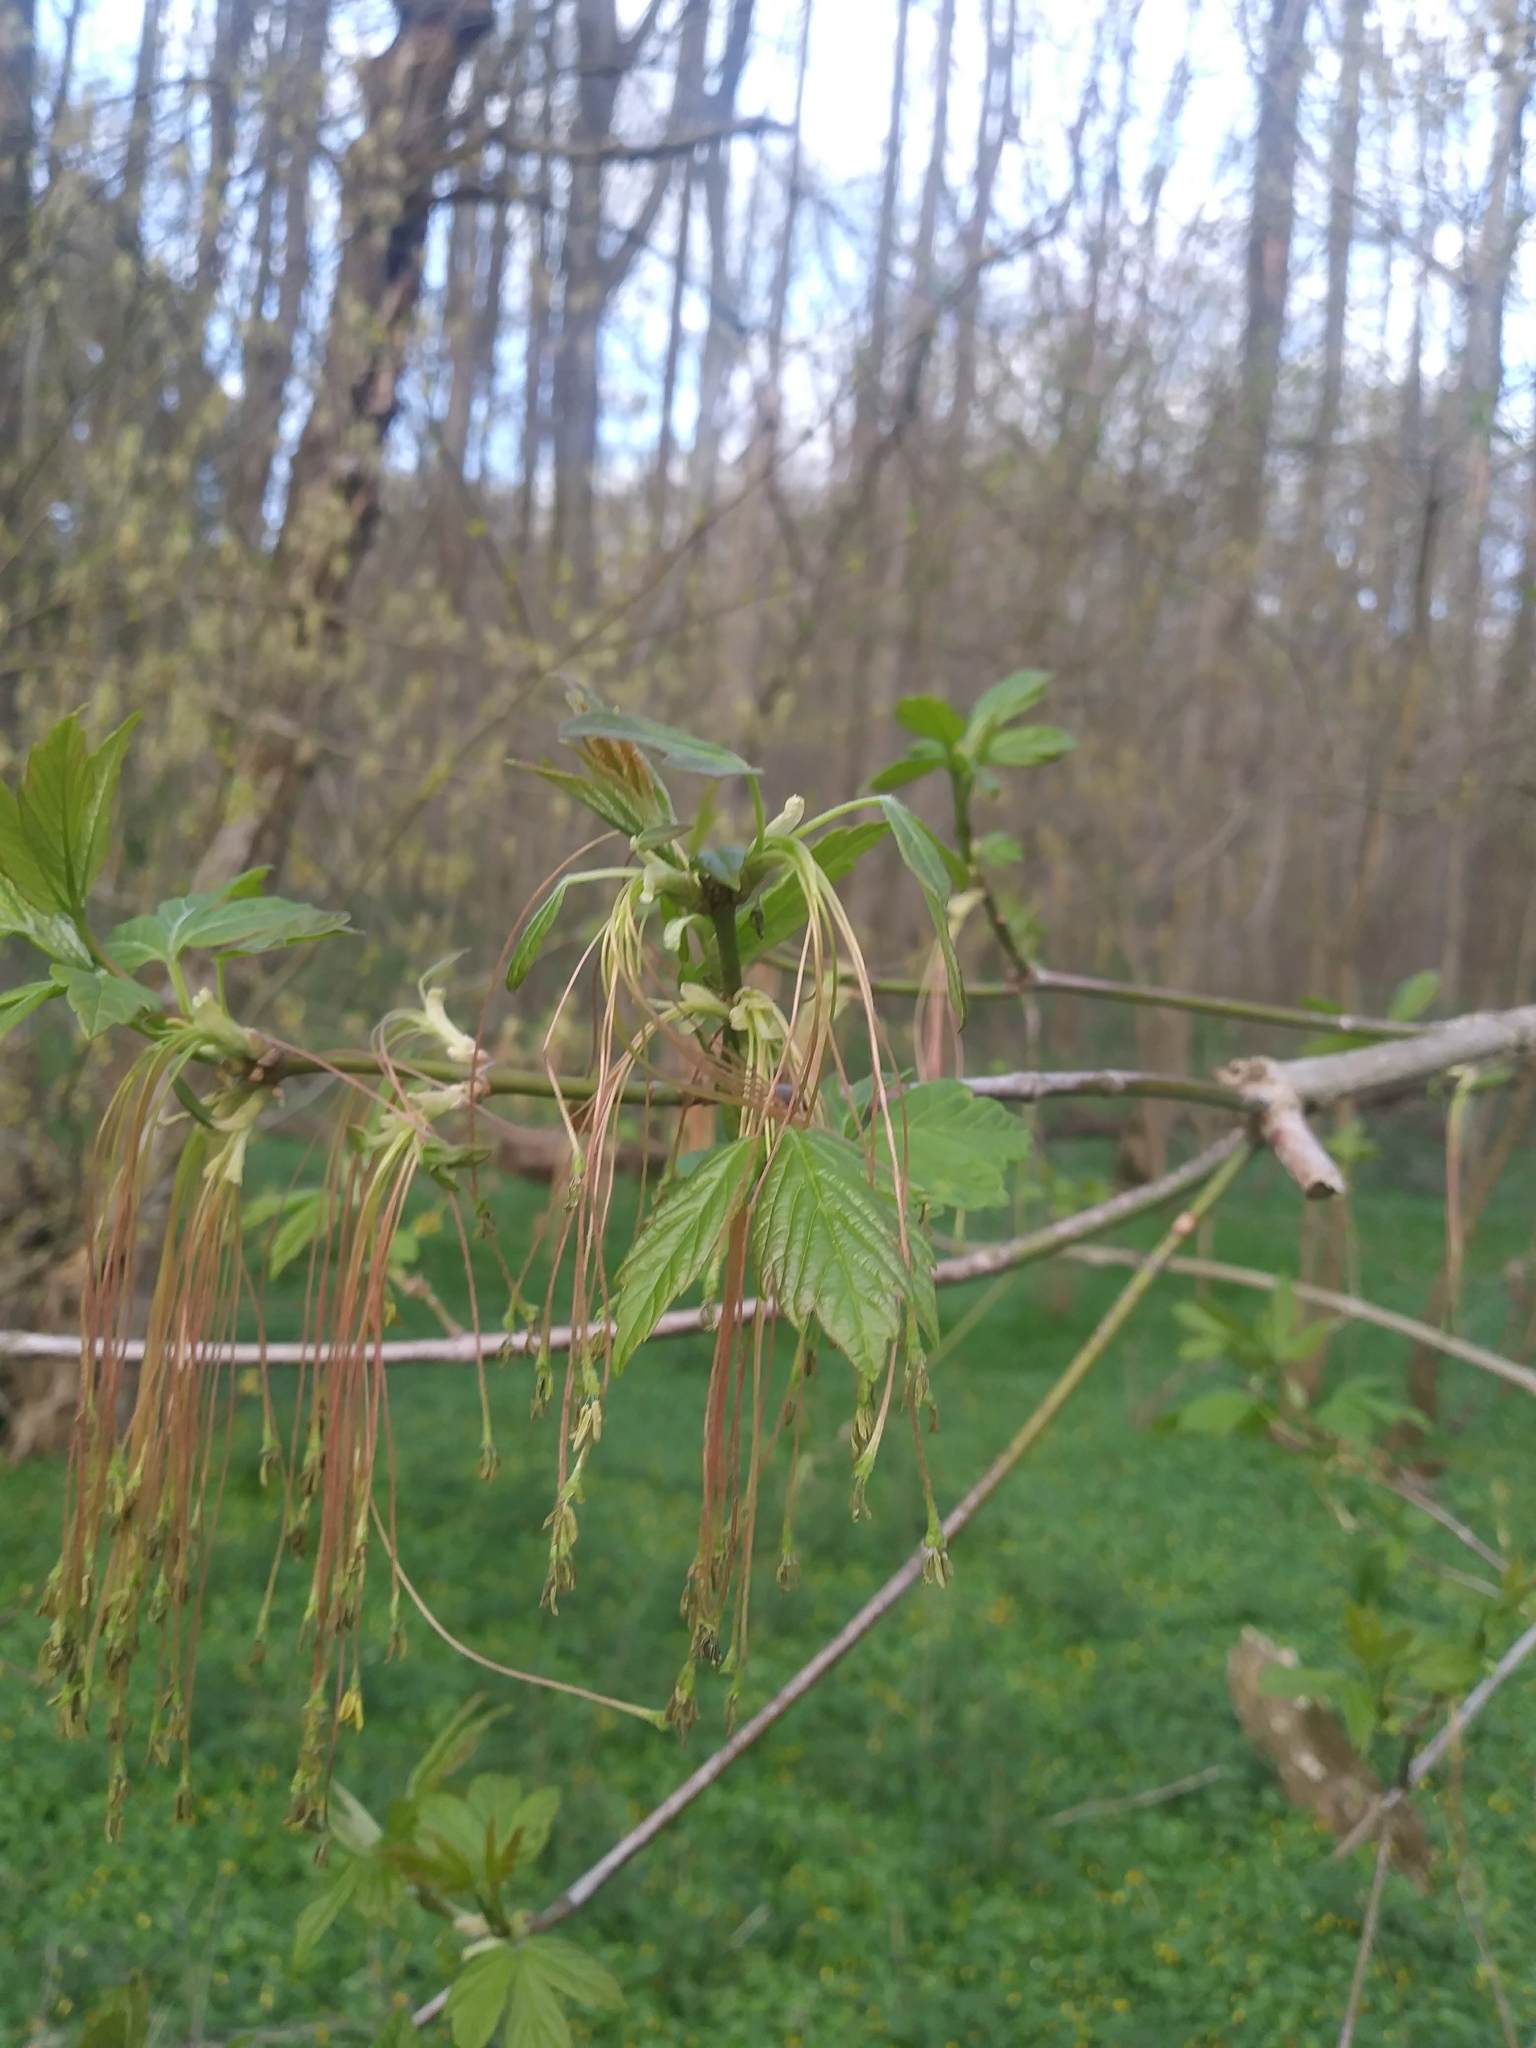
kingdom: Plantae
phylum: Tracheophyta
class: Magnoliopsida
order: Sapindales
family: Sapindaceae
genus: Acer
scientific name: Acer negundo
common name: Ashleaf maple
